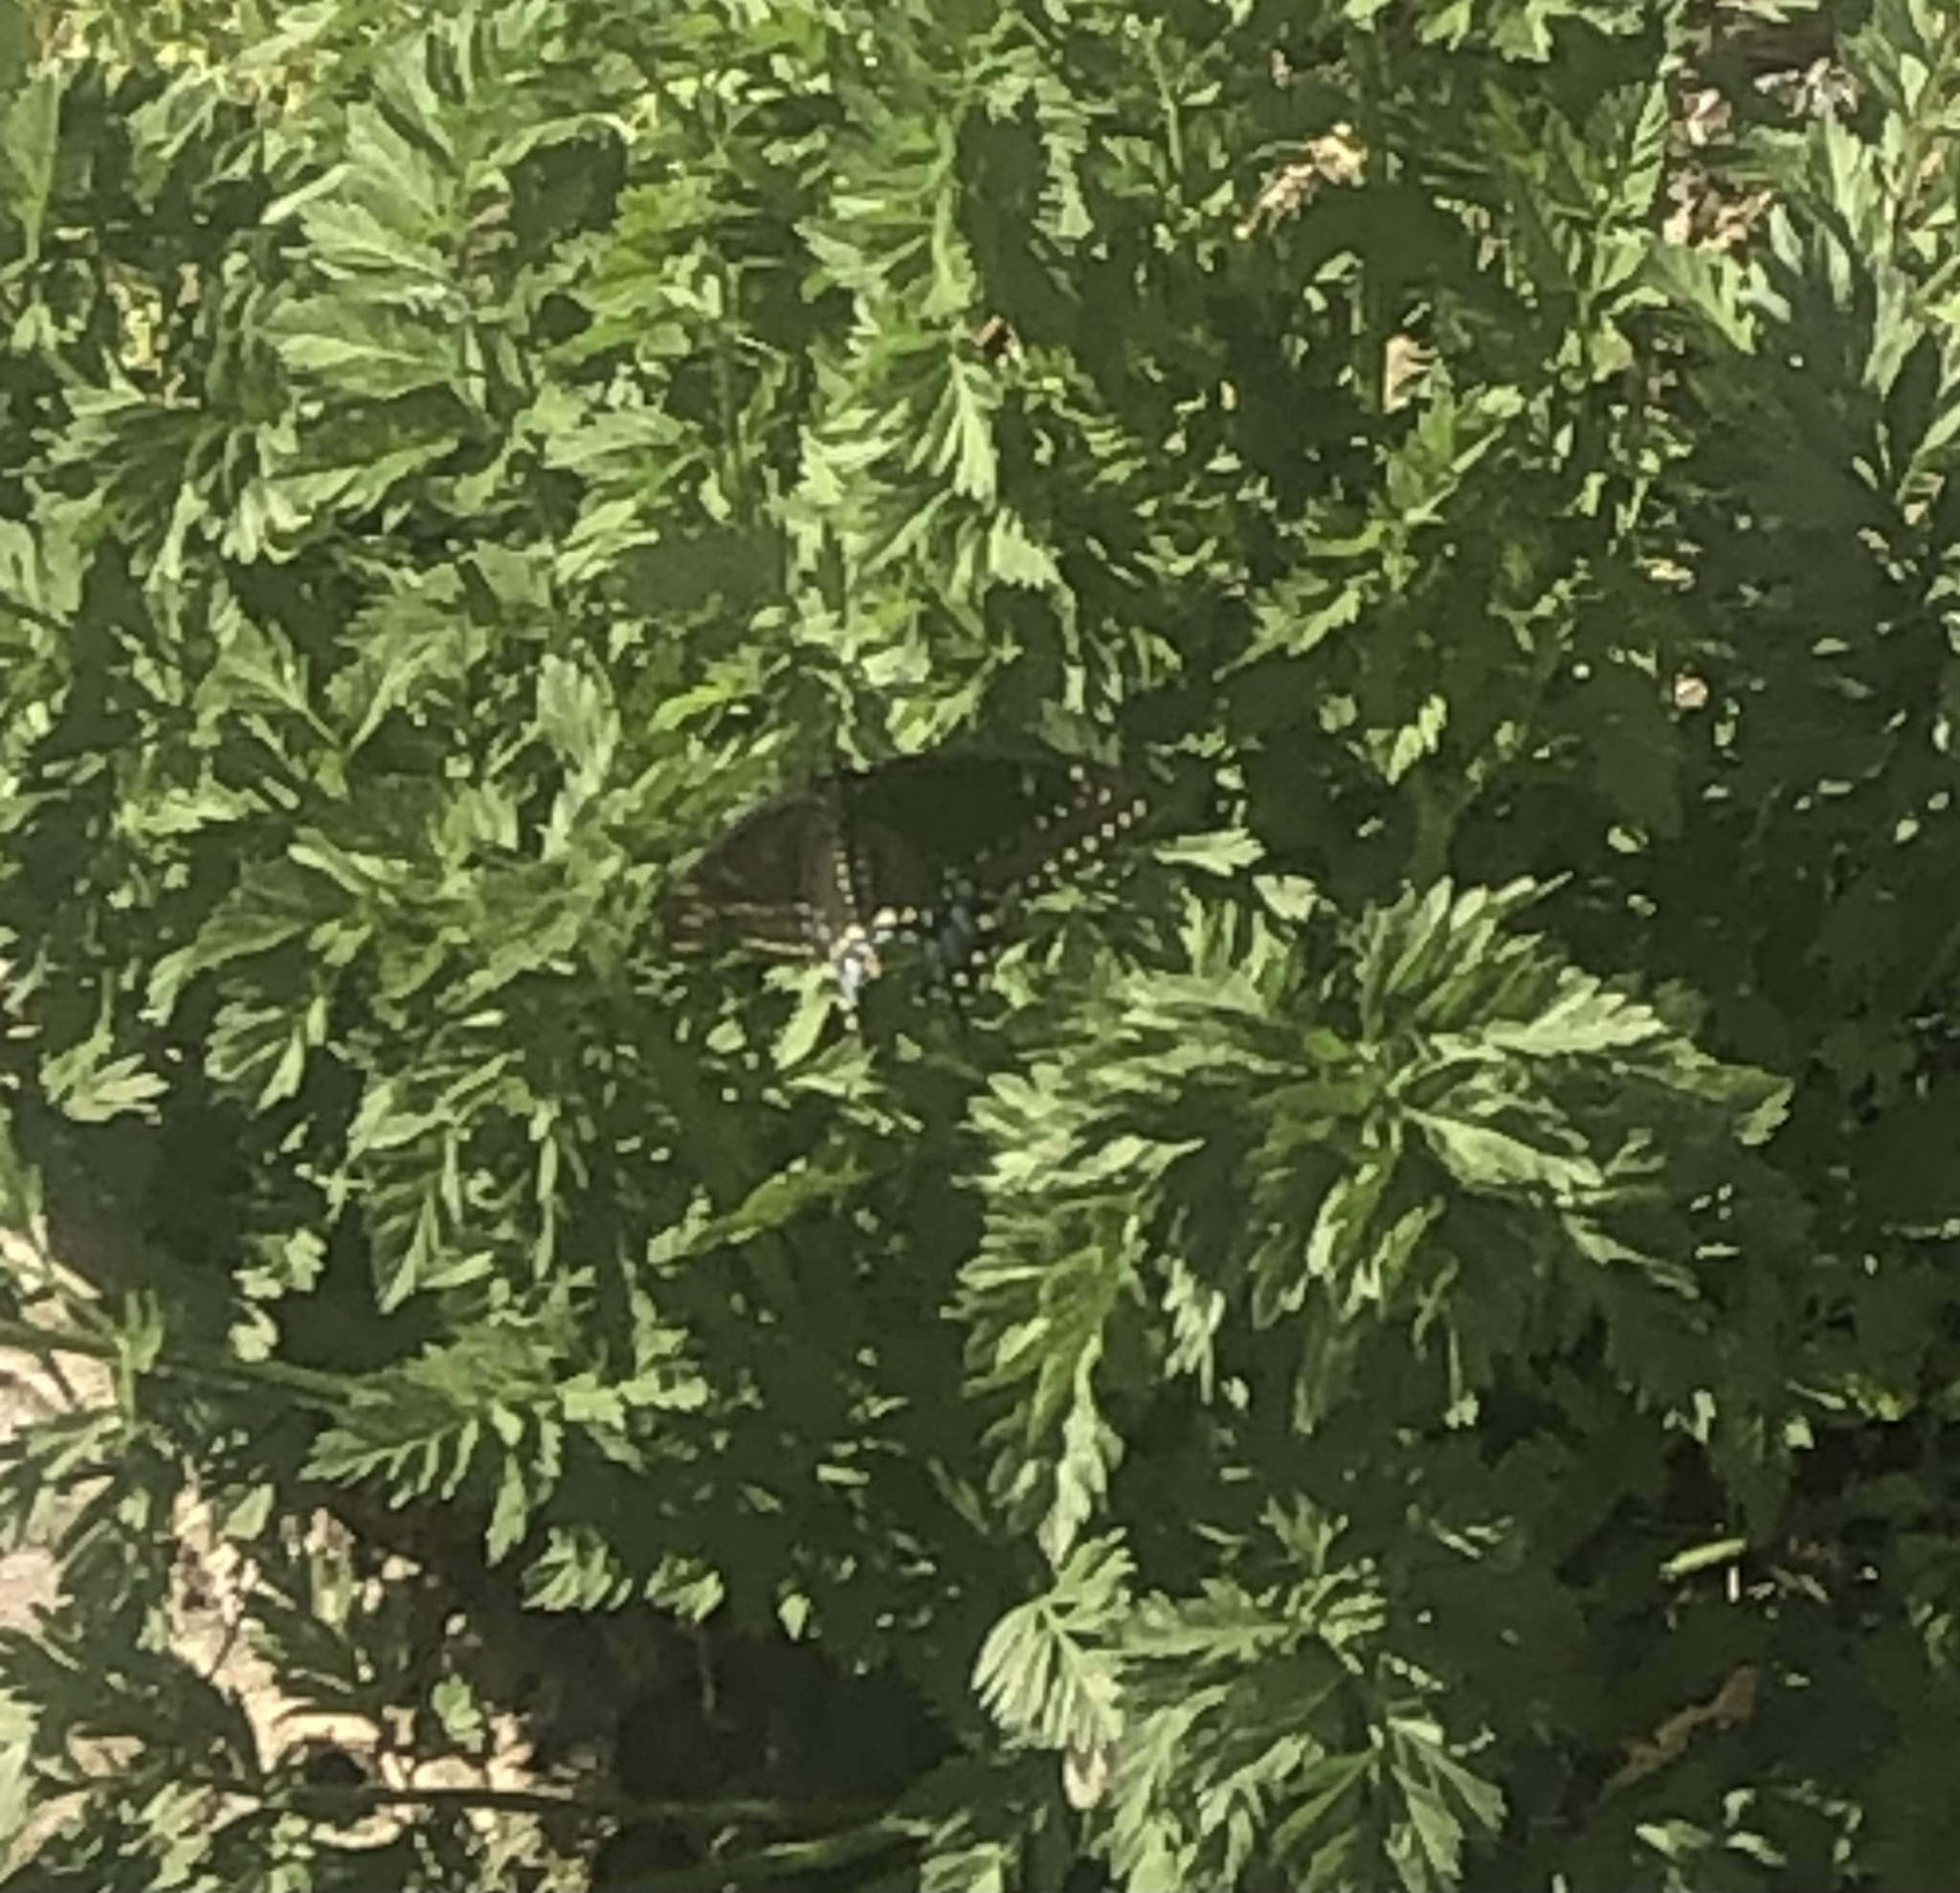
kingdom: Animalia
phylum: Arthropoda
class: Insecta
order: Lepidoptera
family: Papilionidae
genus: Papilio
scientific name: Papilio polyxenes
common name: Black swallowtail
